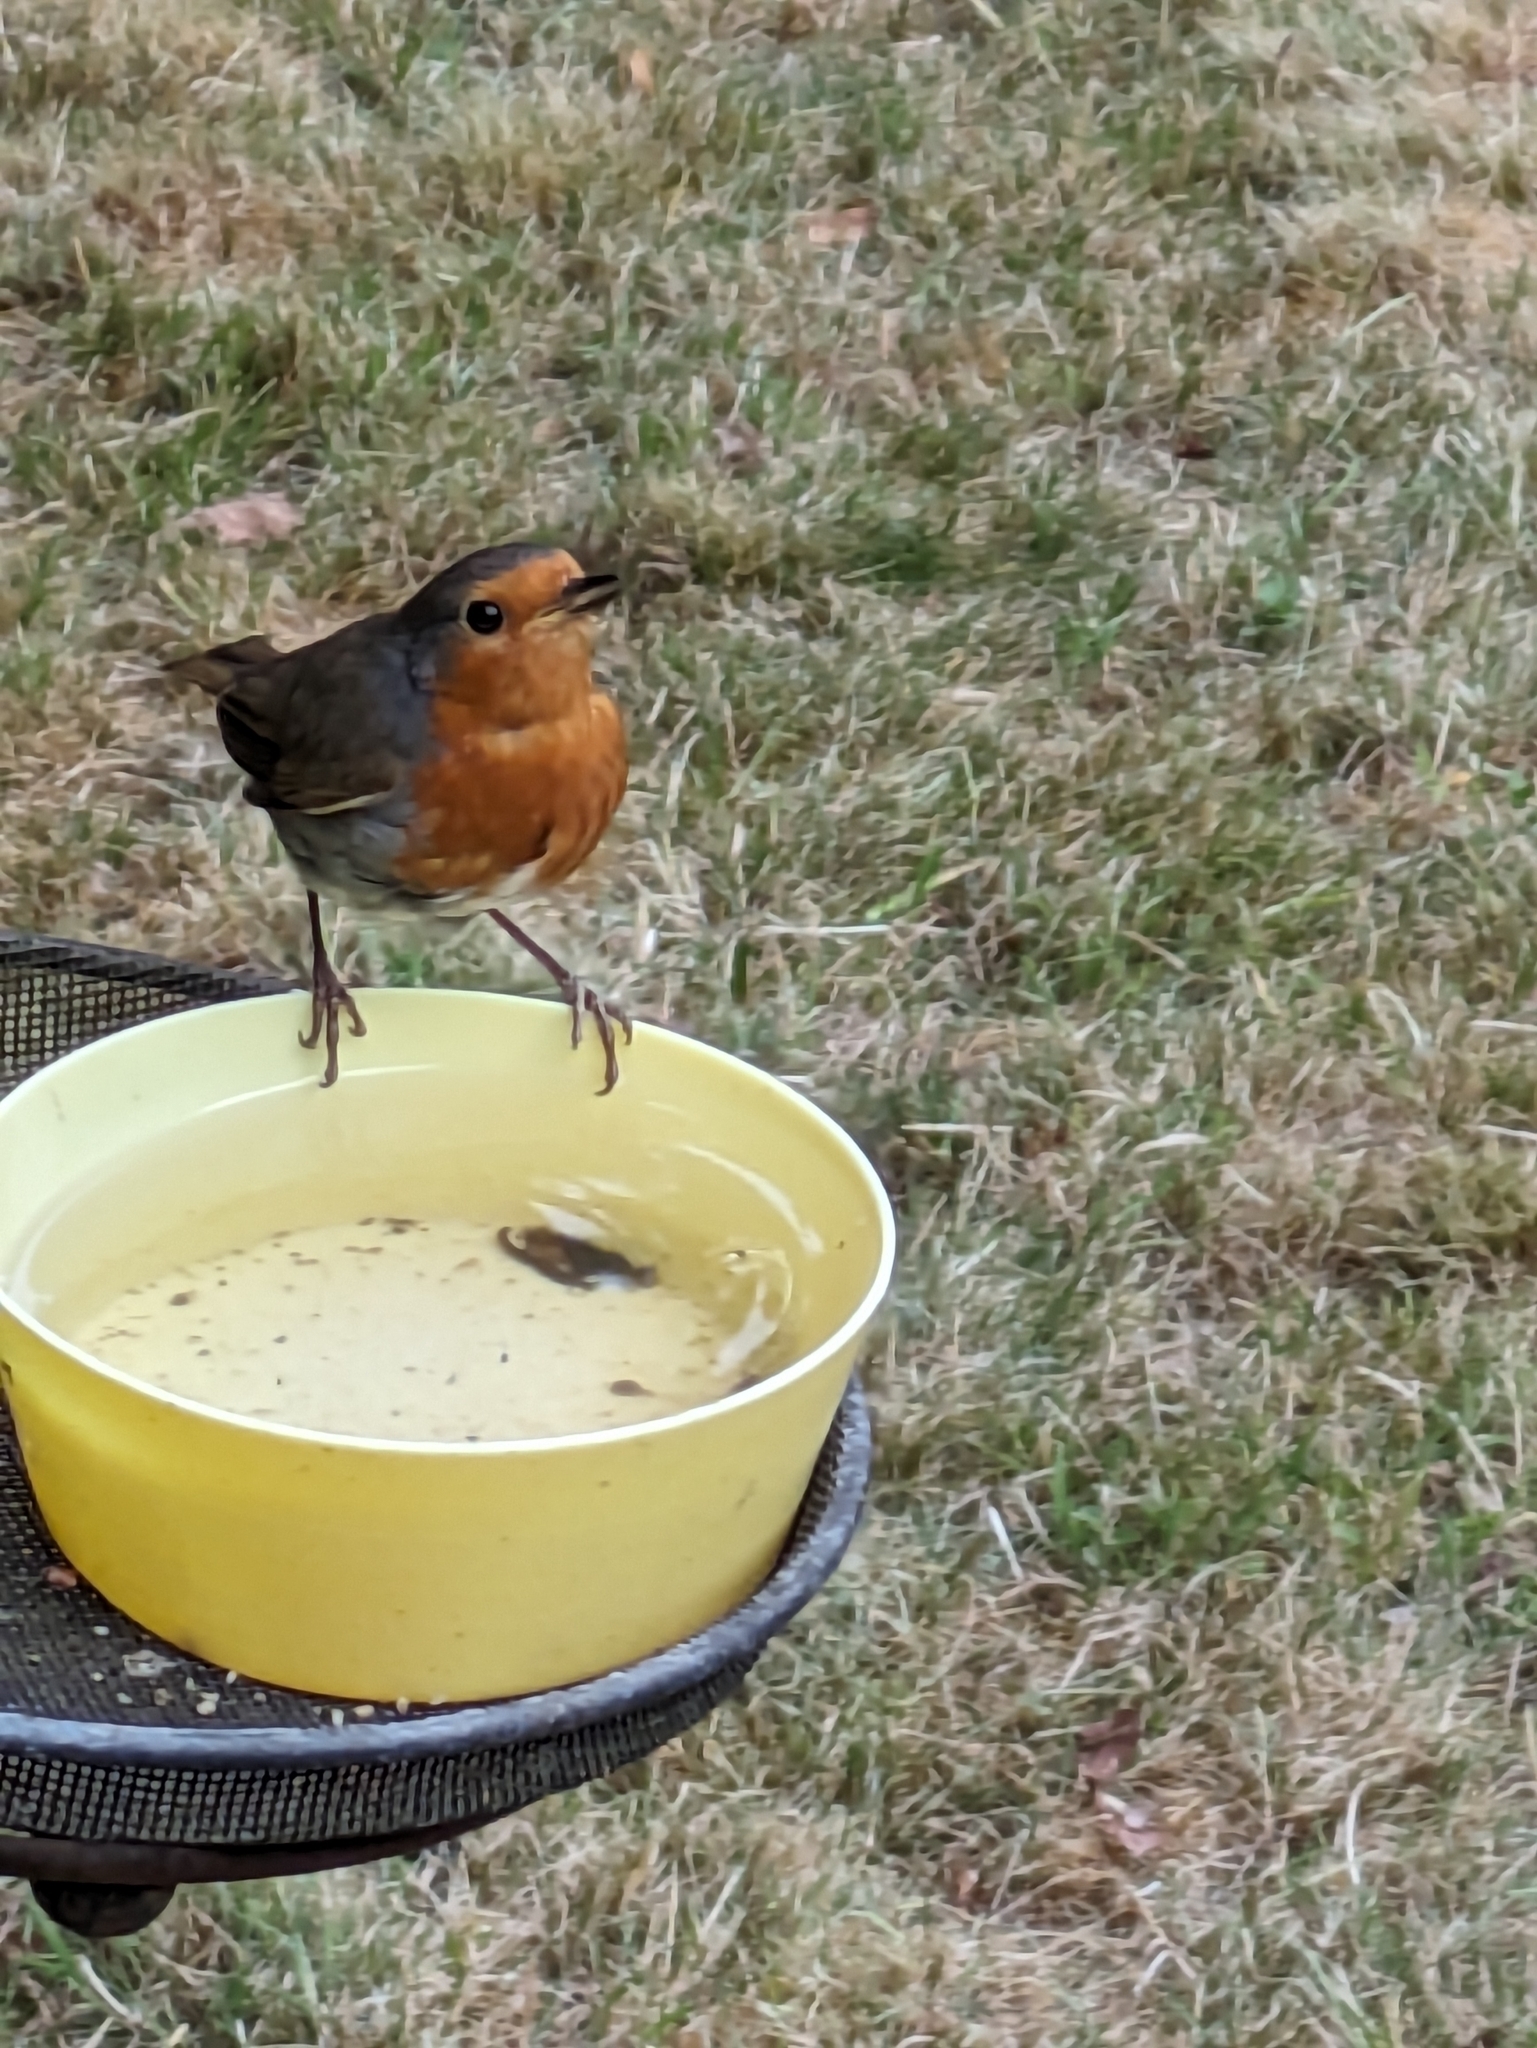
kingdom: Animalia
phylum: Chordata
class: Aves
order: Passeriformes
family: Muscicapidae
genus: Erithacus
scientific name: Erithacus rubecula
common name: European robin
